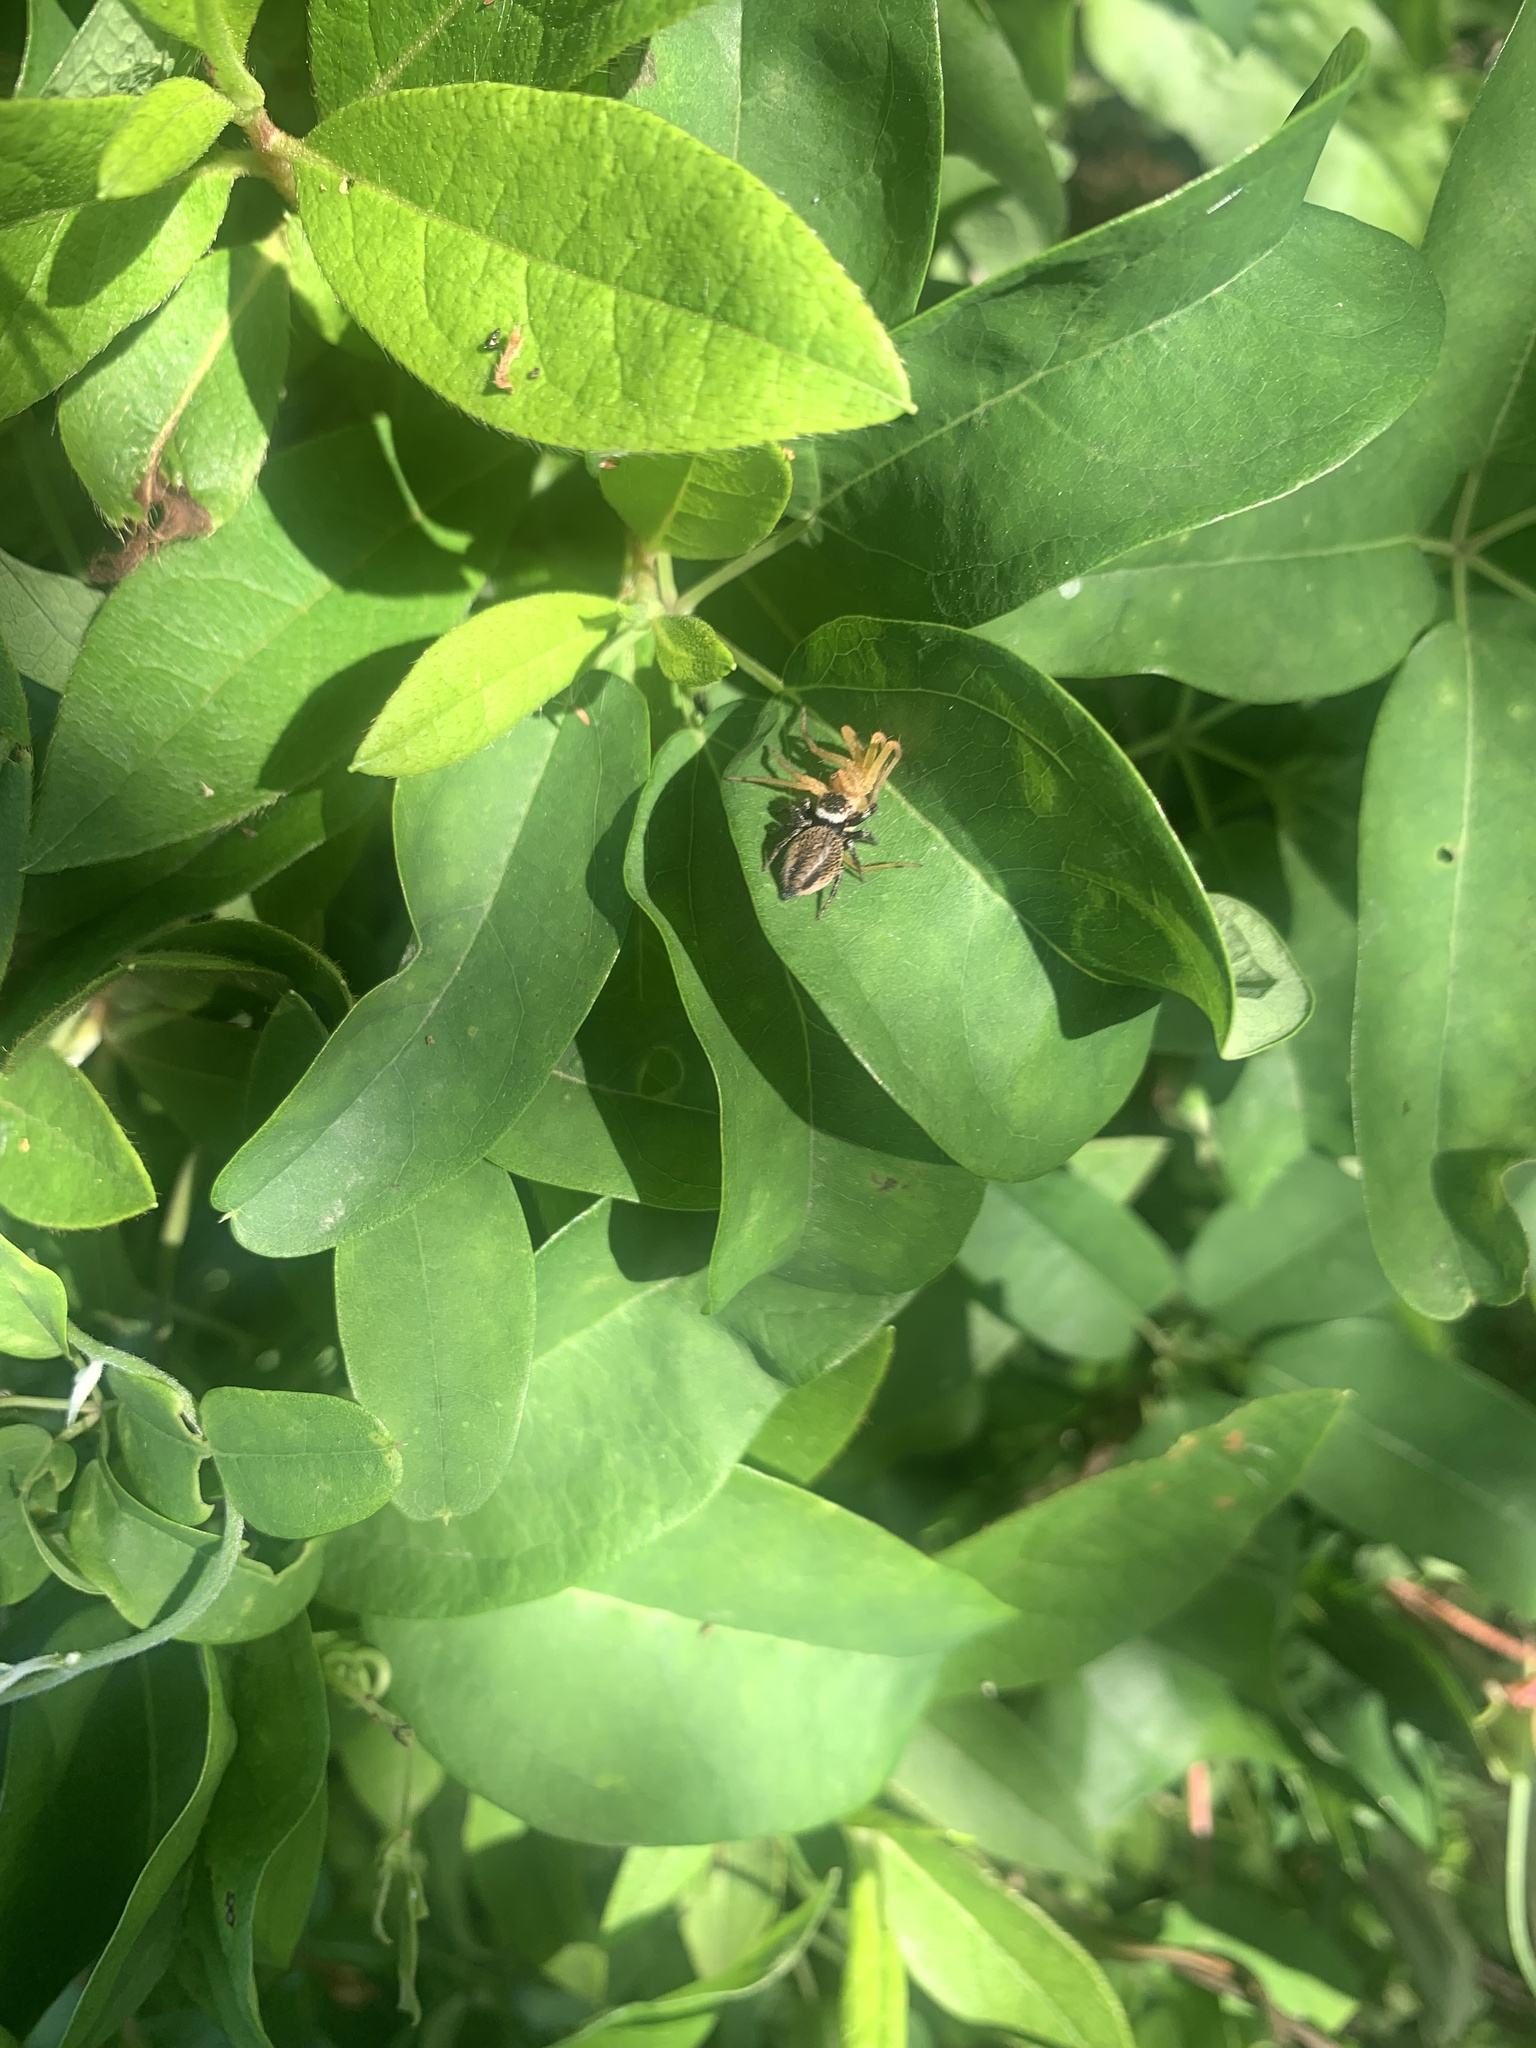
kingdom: Animalia
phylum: Arthropoda
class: Arachnida
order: Araneae
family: Salticidae
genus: Evarcha
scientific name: Evarcha albaria
